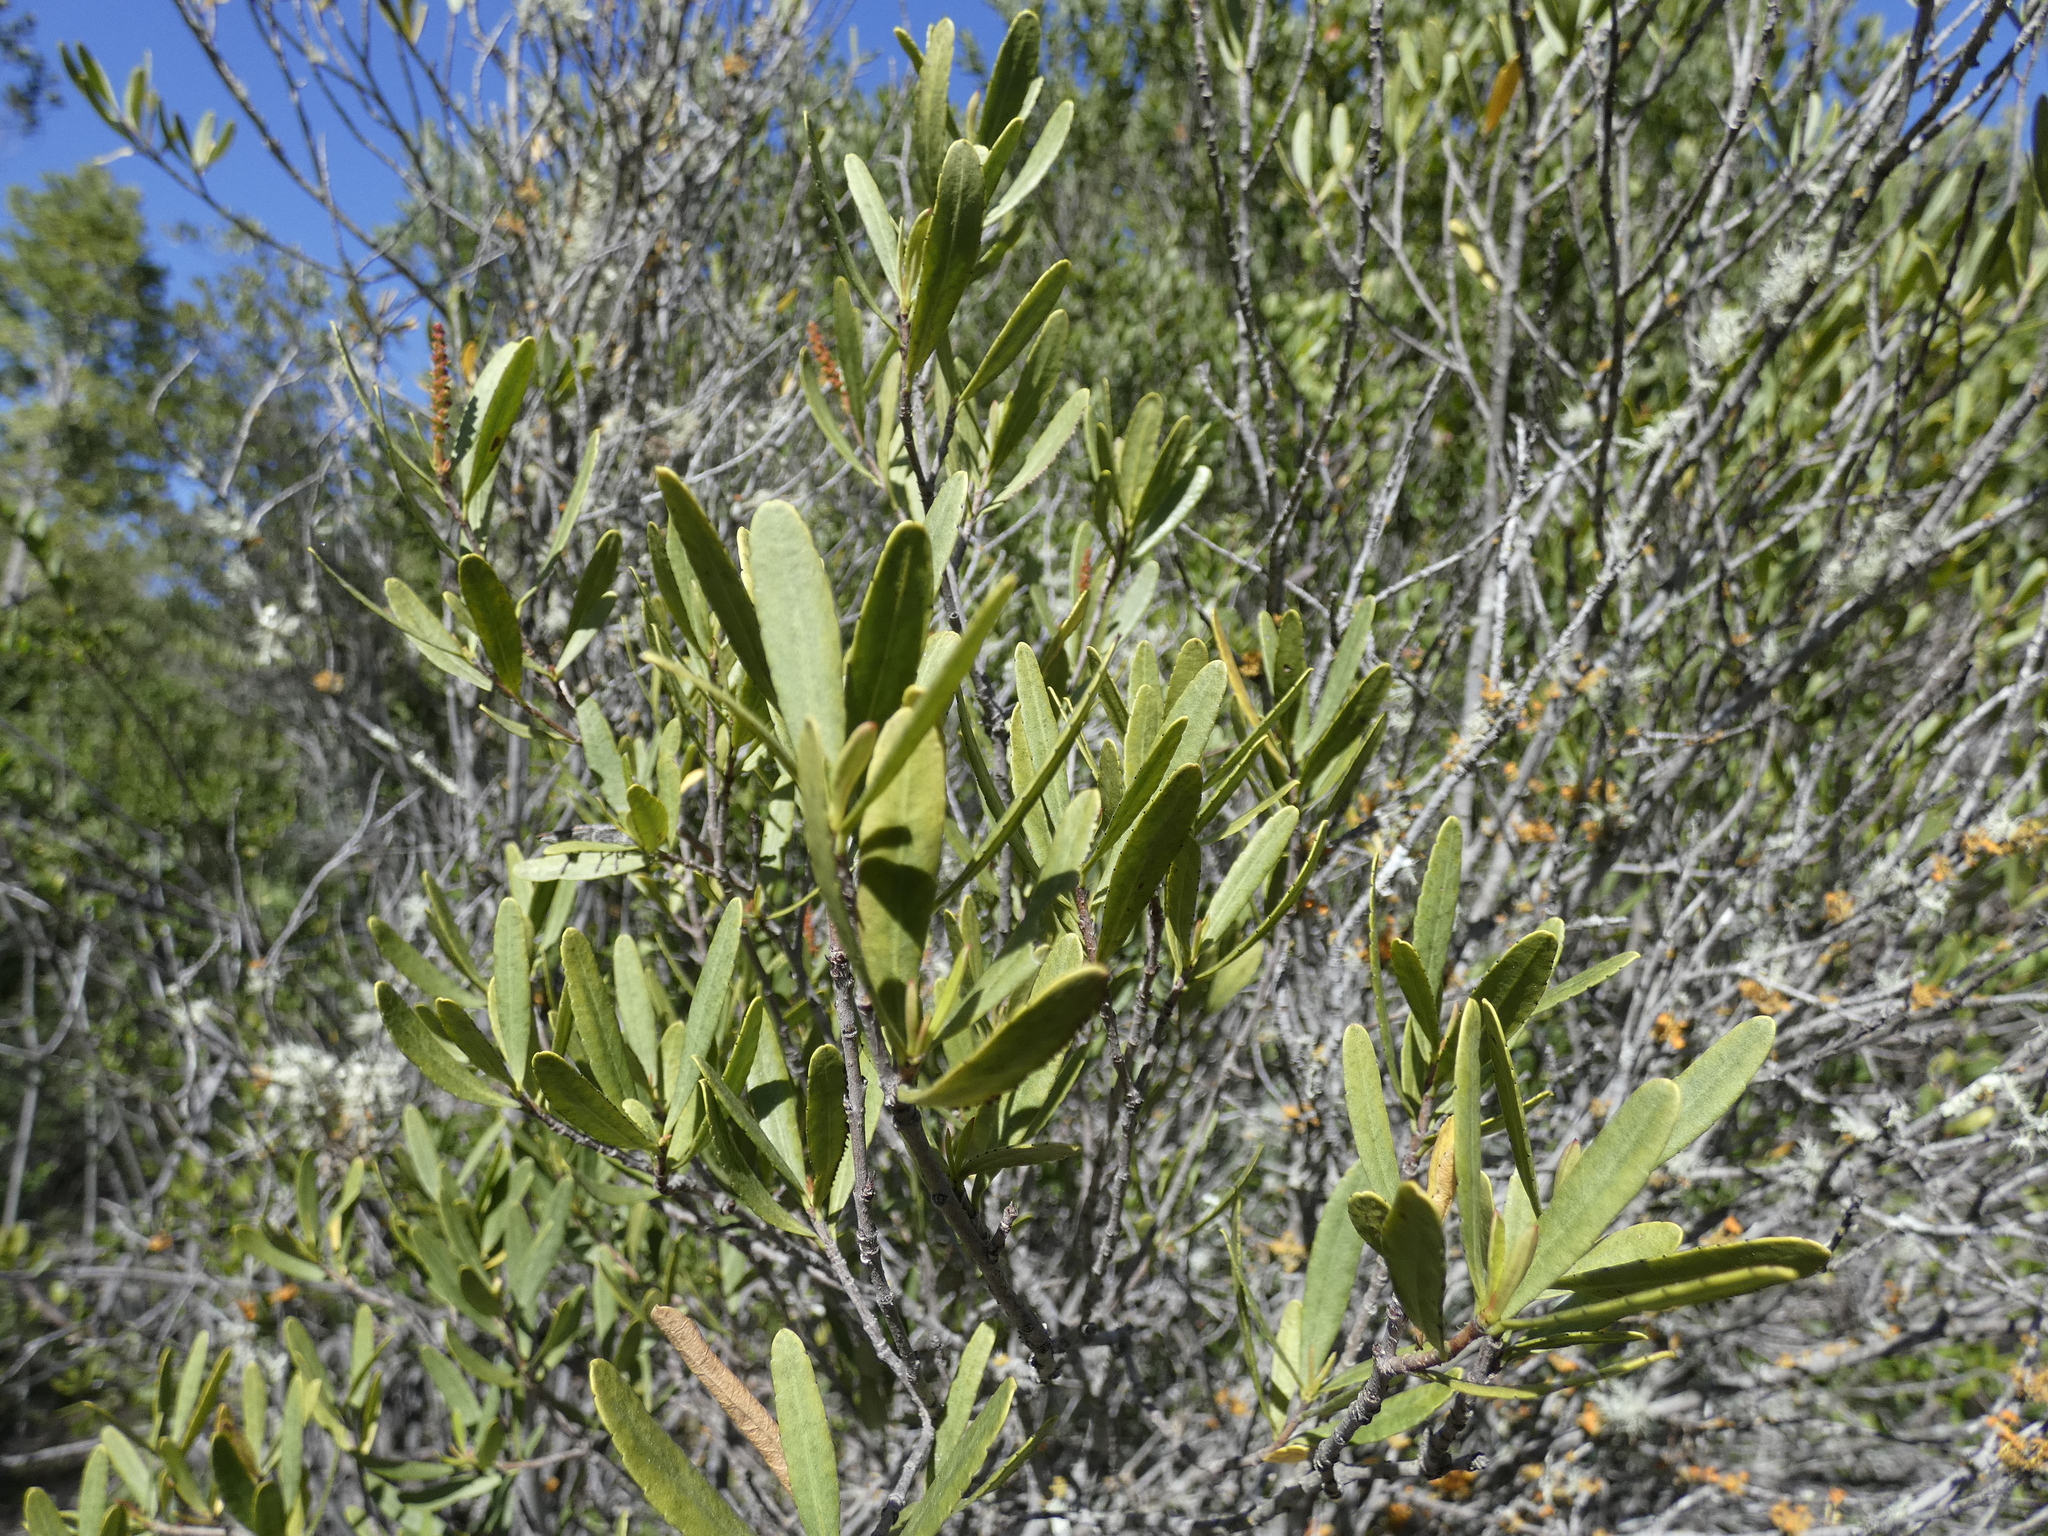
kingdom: Plantae
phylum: Tracheophyta
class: Magnoliopsida
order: Malpighiales
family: Euphorbiaceae
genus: Colliguaja
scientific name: Colliguaja dombeyana
